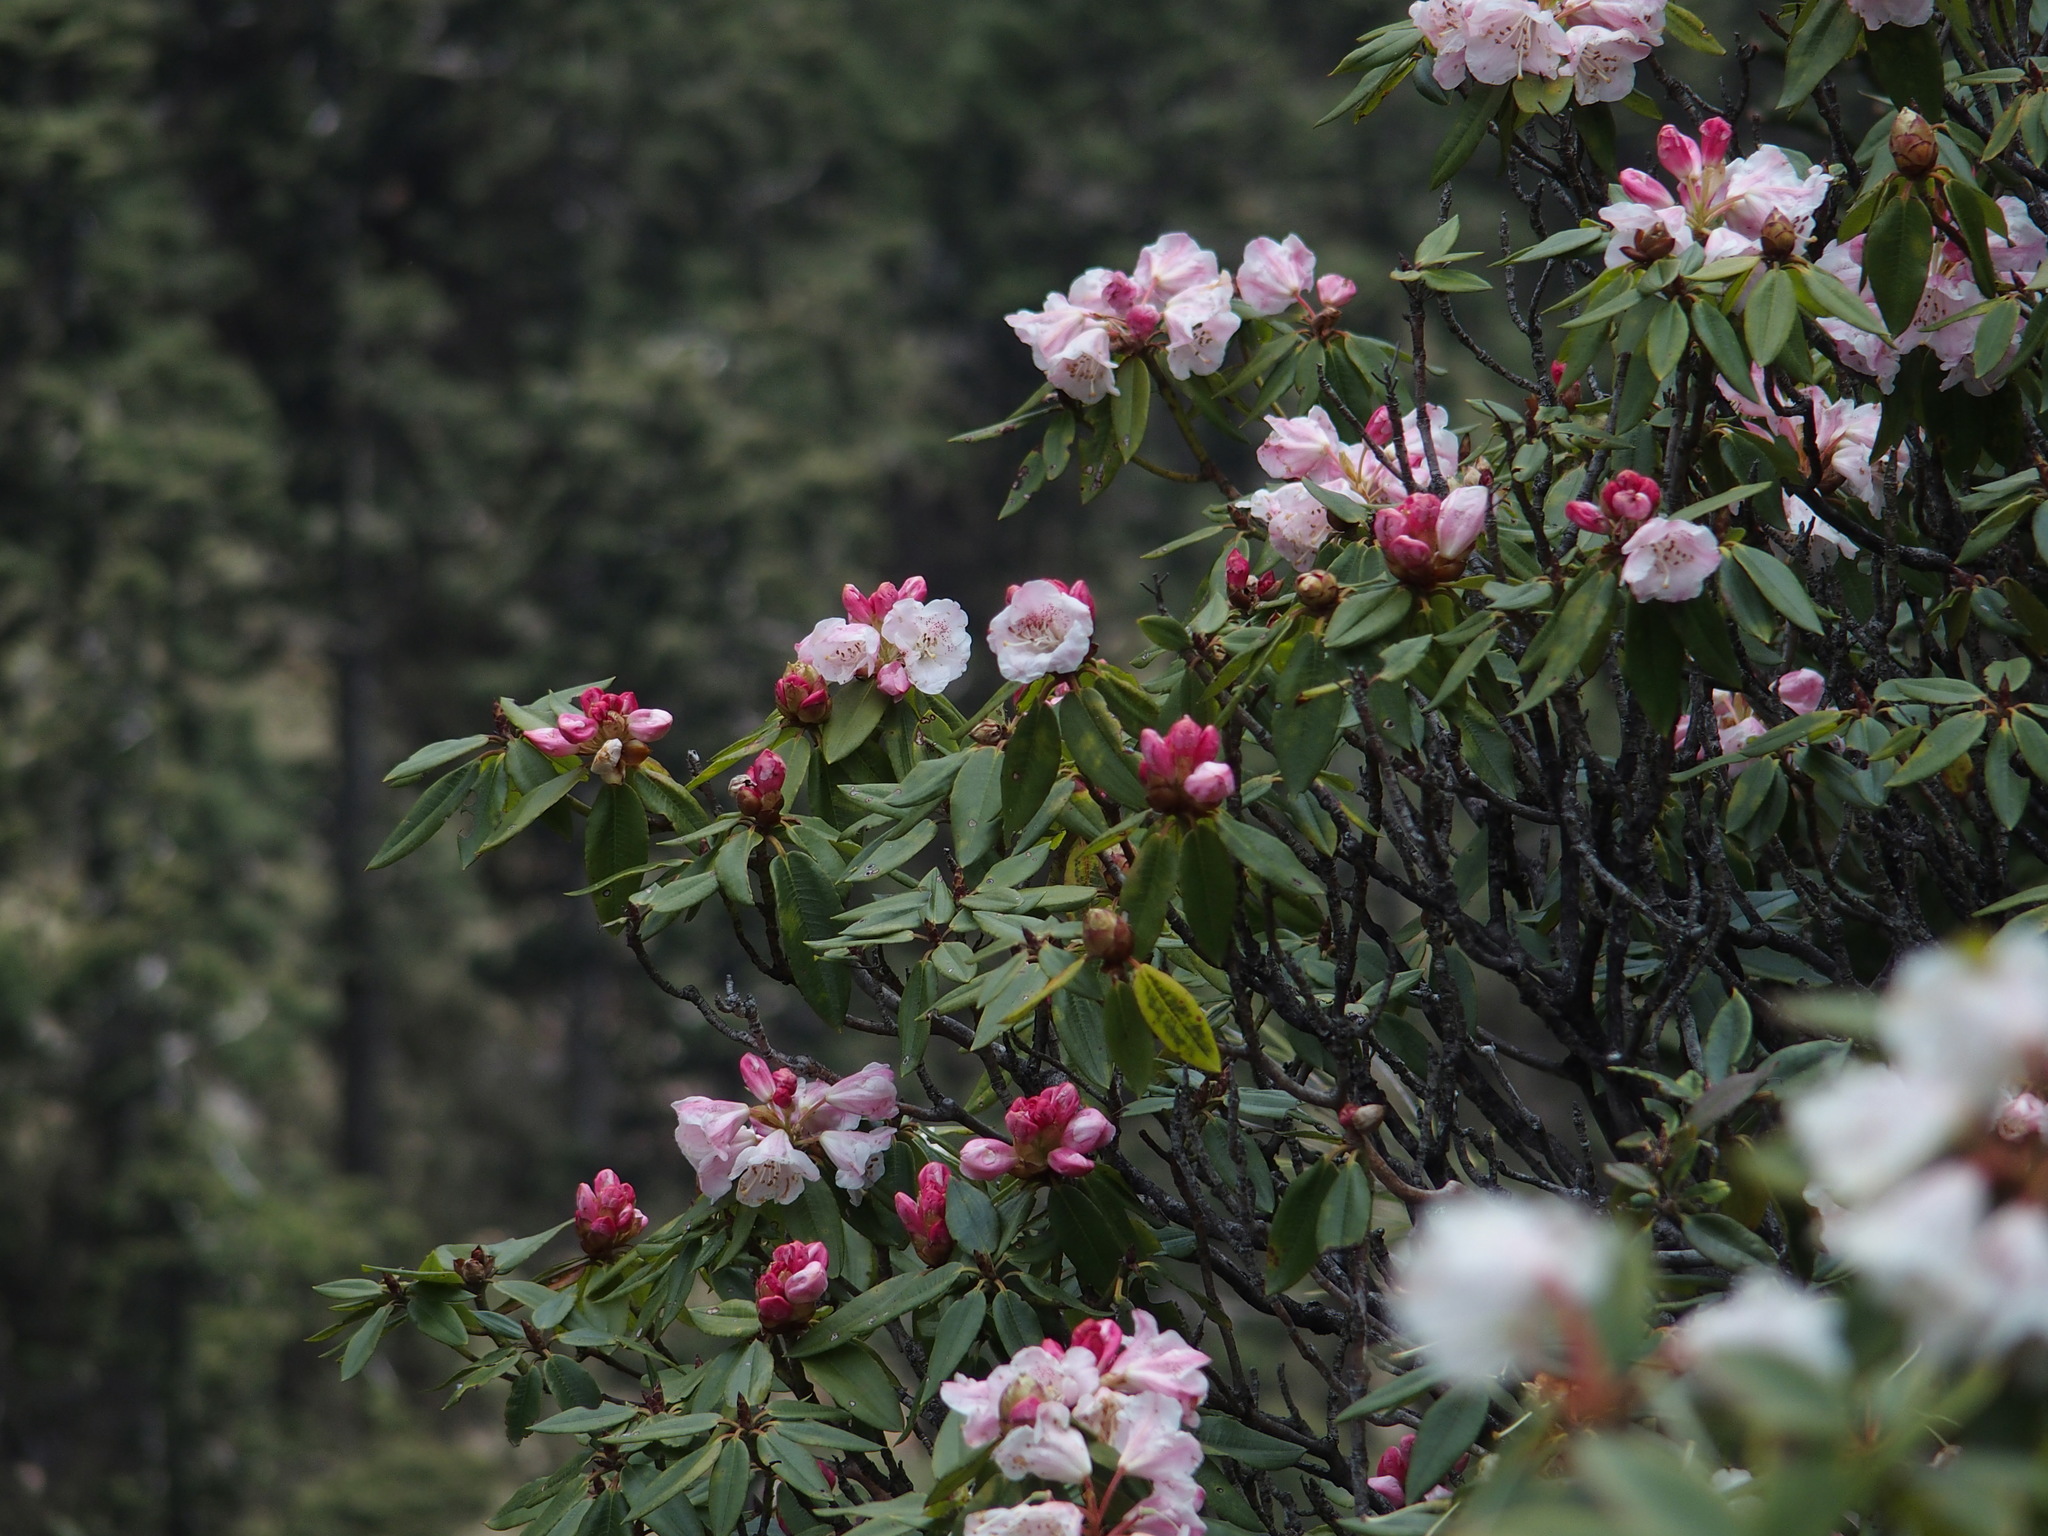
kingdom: Plantae
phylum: Tracheophyta
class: Magnoliopsida
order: Ericales
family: Ericaceae
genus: Rhododendron
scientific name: Rhododendron pseudochrysanthum
